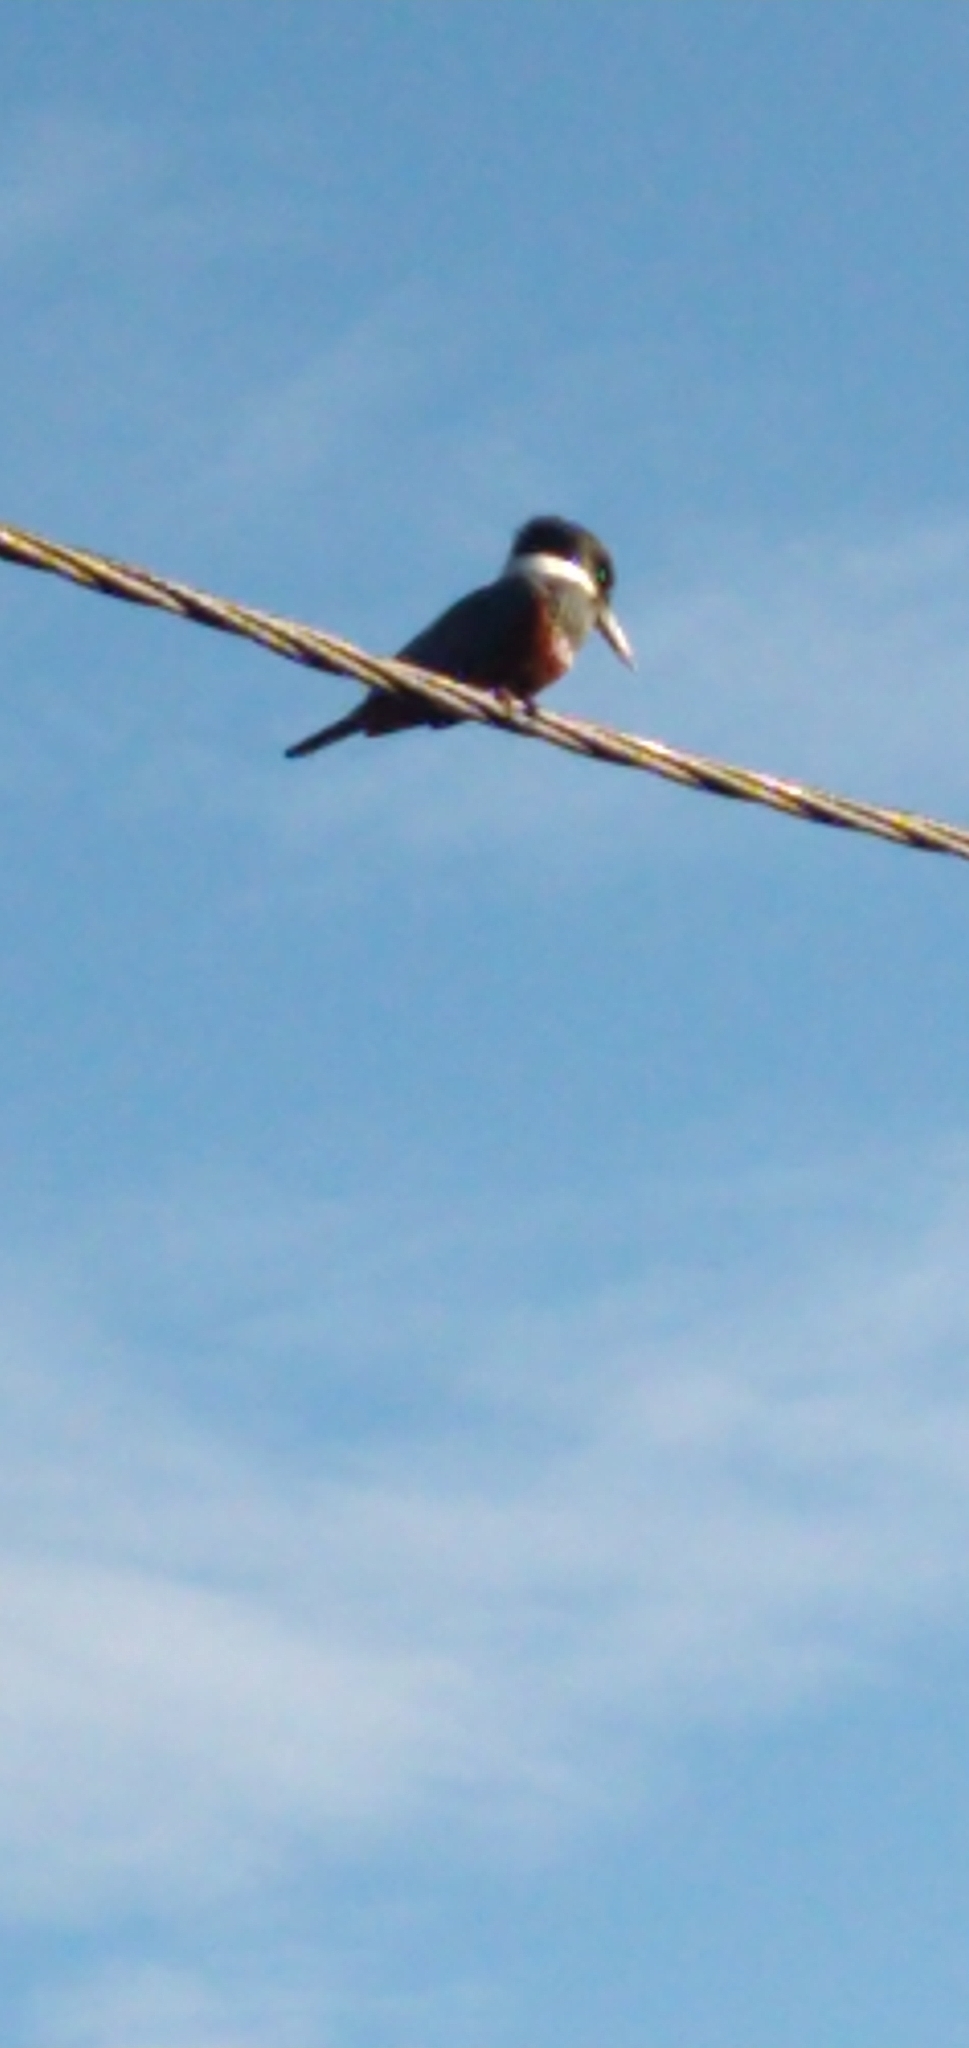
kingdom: Animalia
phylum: Chordata
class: Aves
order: Coraciiformes
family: Alcedinidae
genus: Megaceryle
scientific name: Megaceryle torquata
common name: Ringed kingfisher
